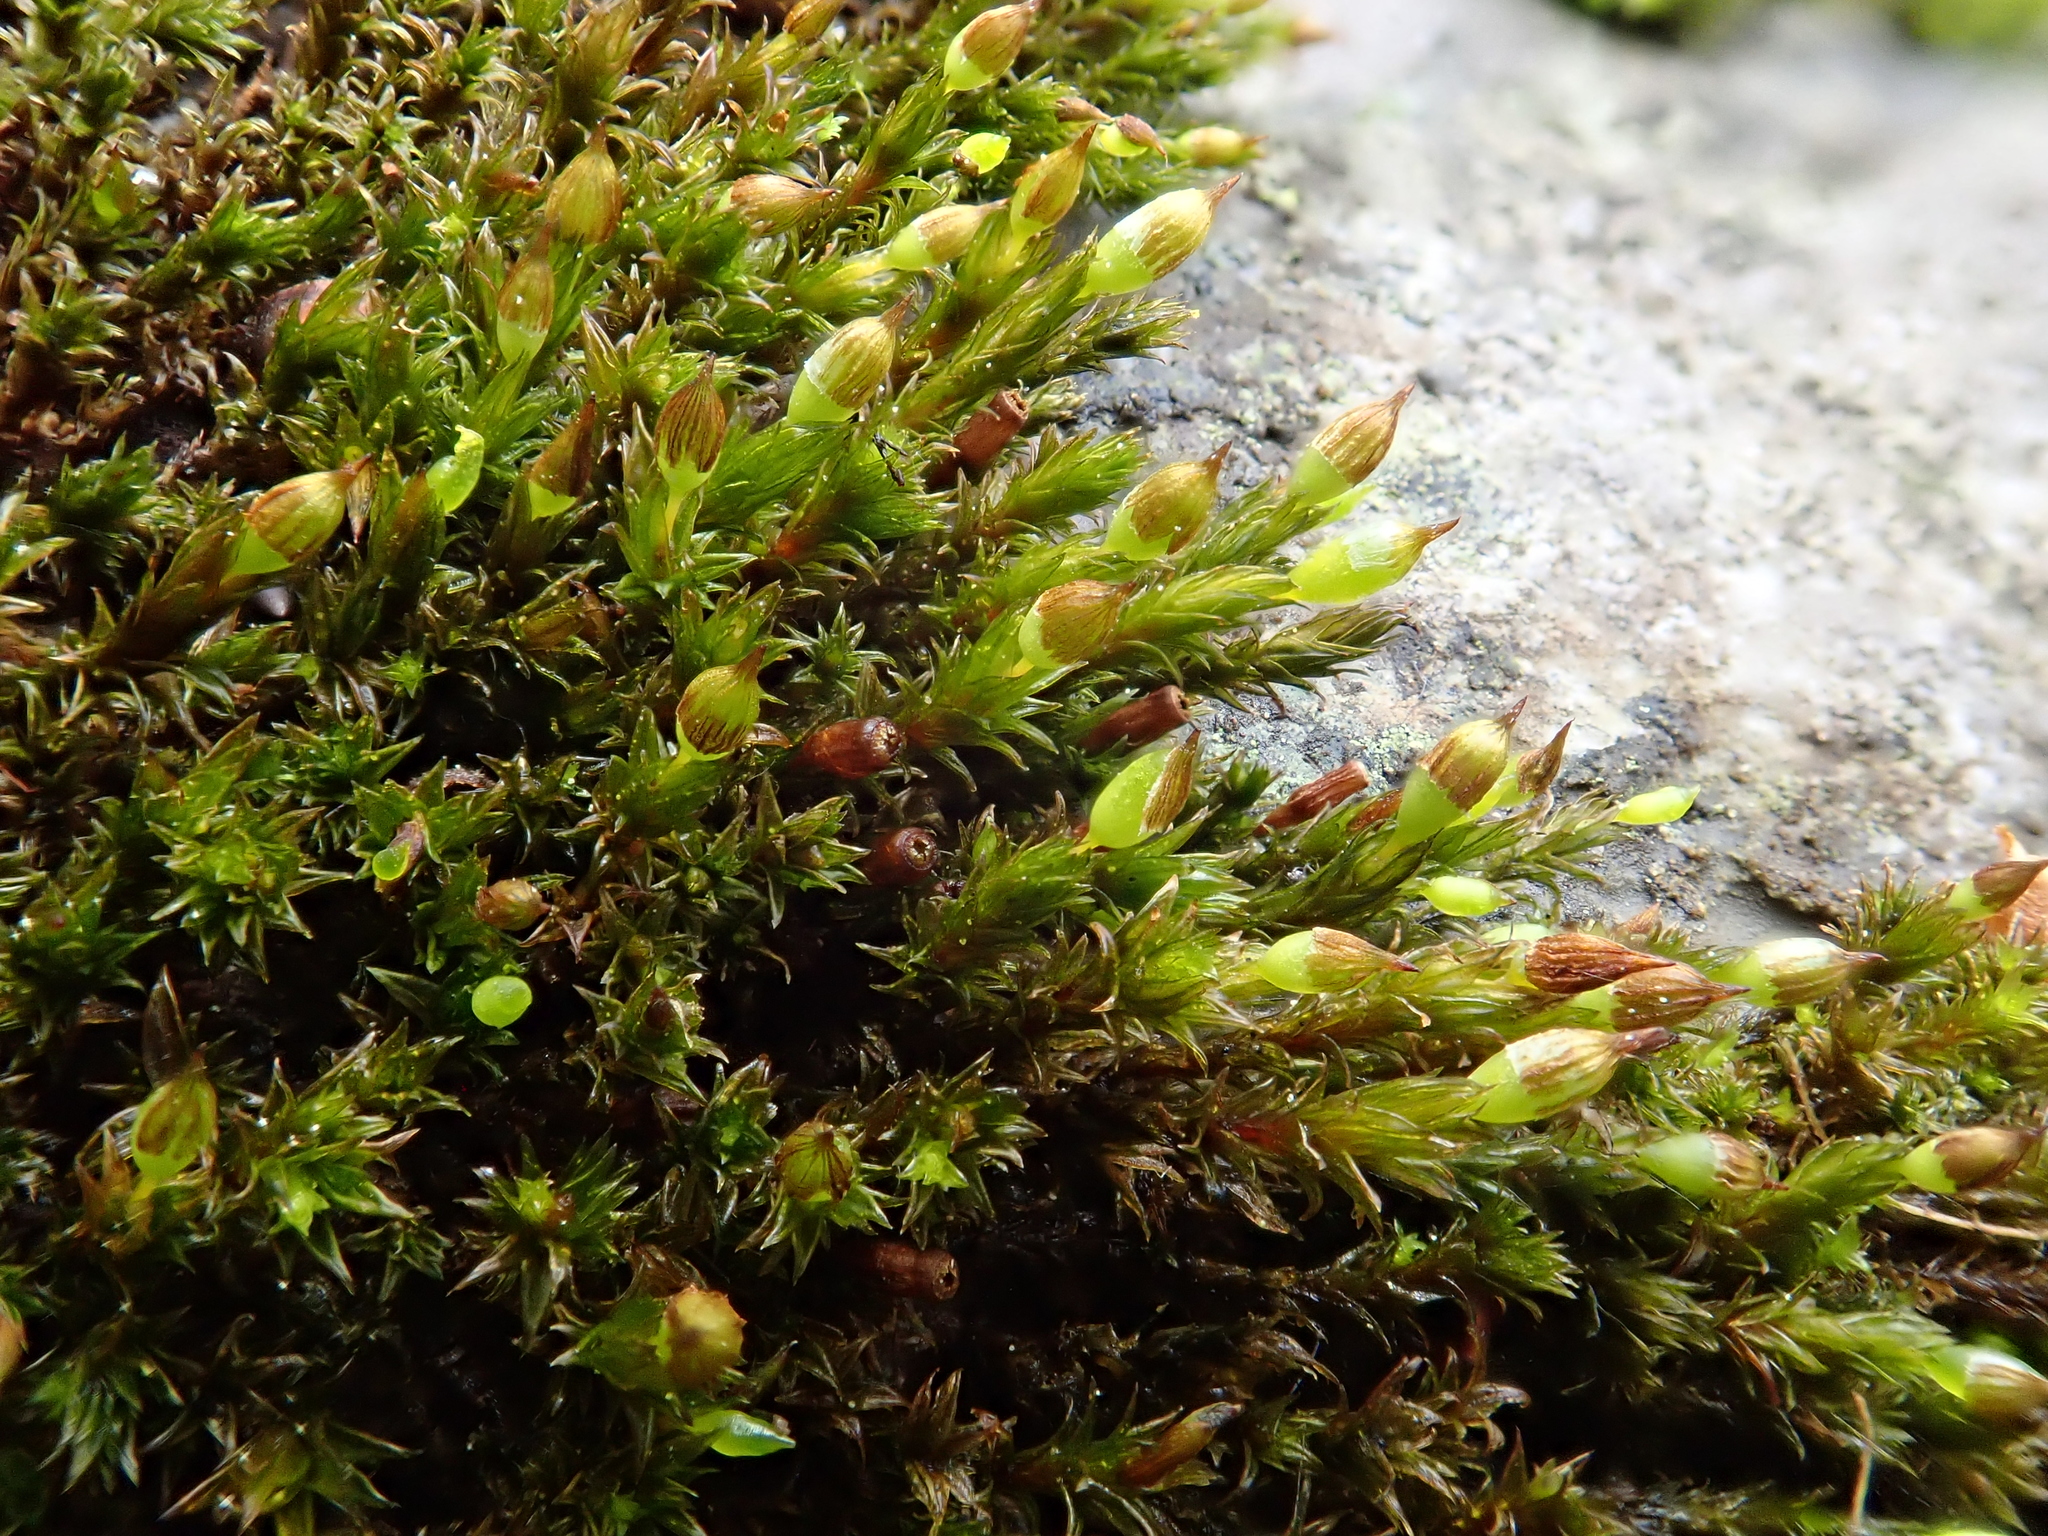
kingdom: Plantae
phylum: Bryophyta
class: Bryopsida
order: Orthotrichales
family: Orthotrichaceae
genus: Orthotrichum
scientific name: Orthotrichum cupulatum
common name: Hooded bristle-moss
